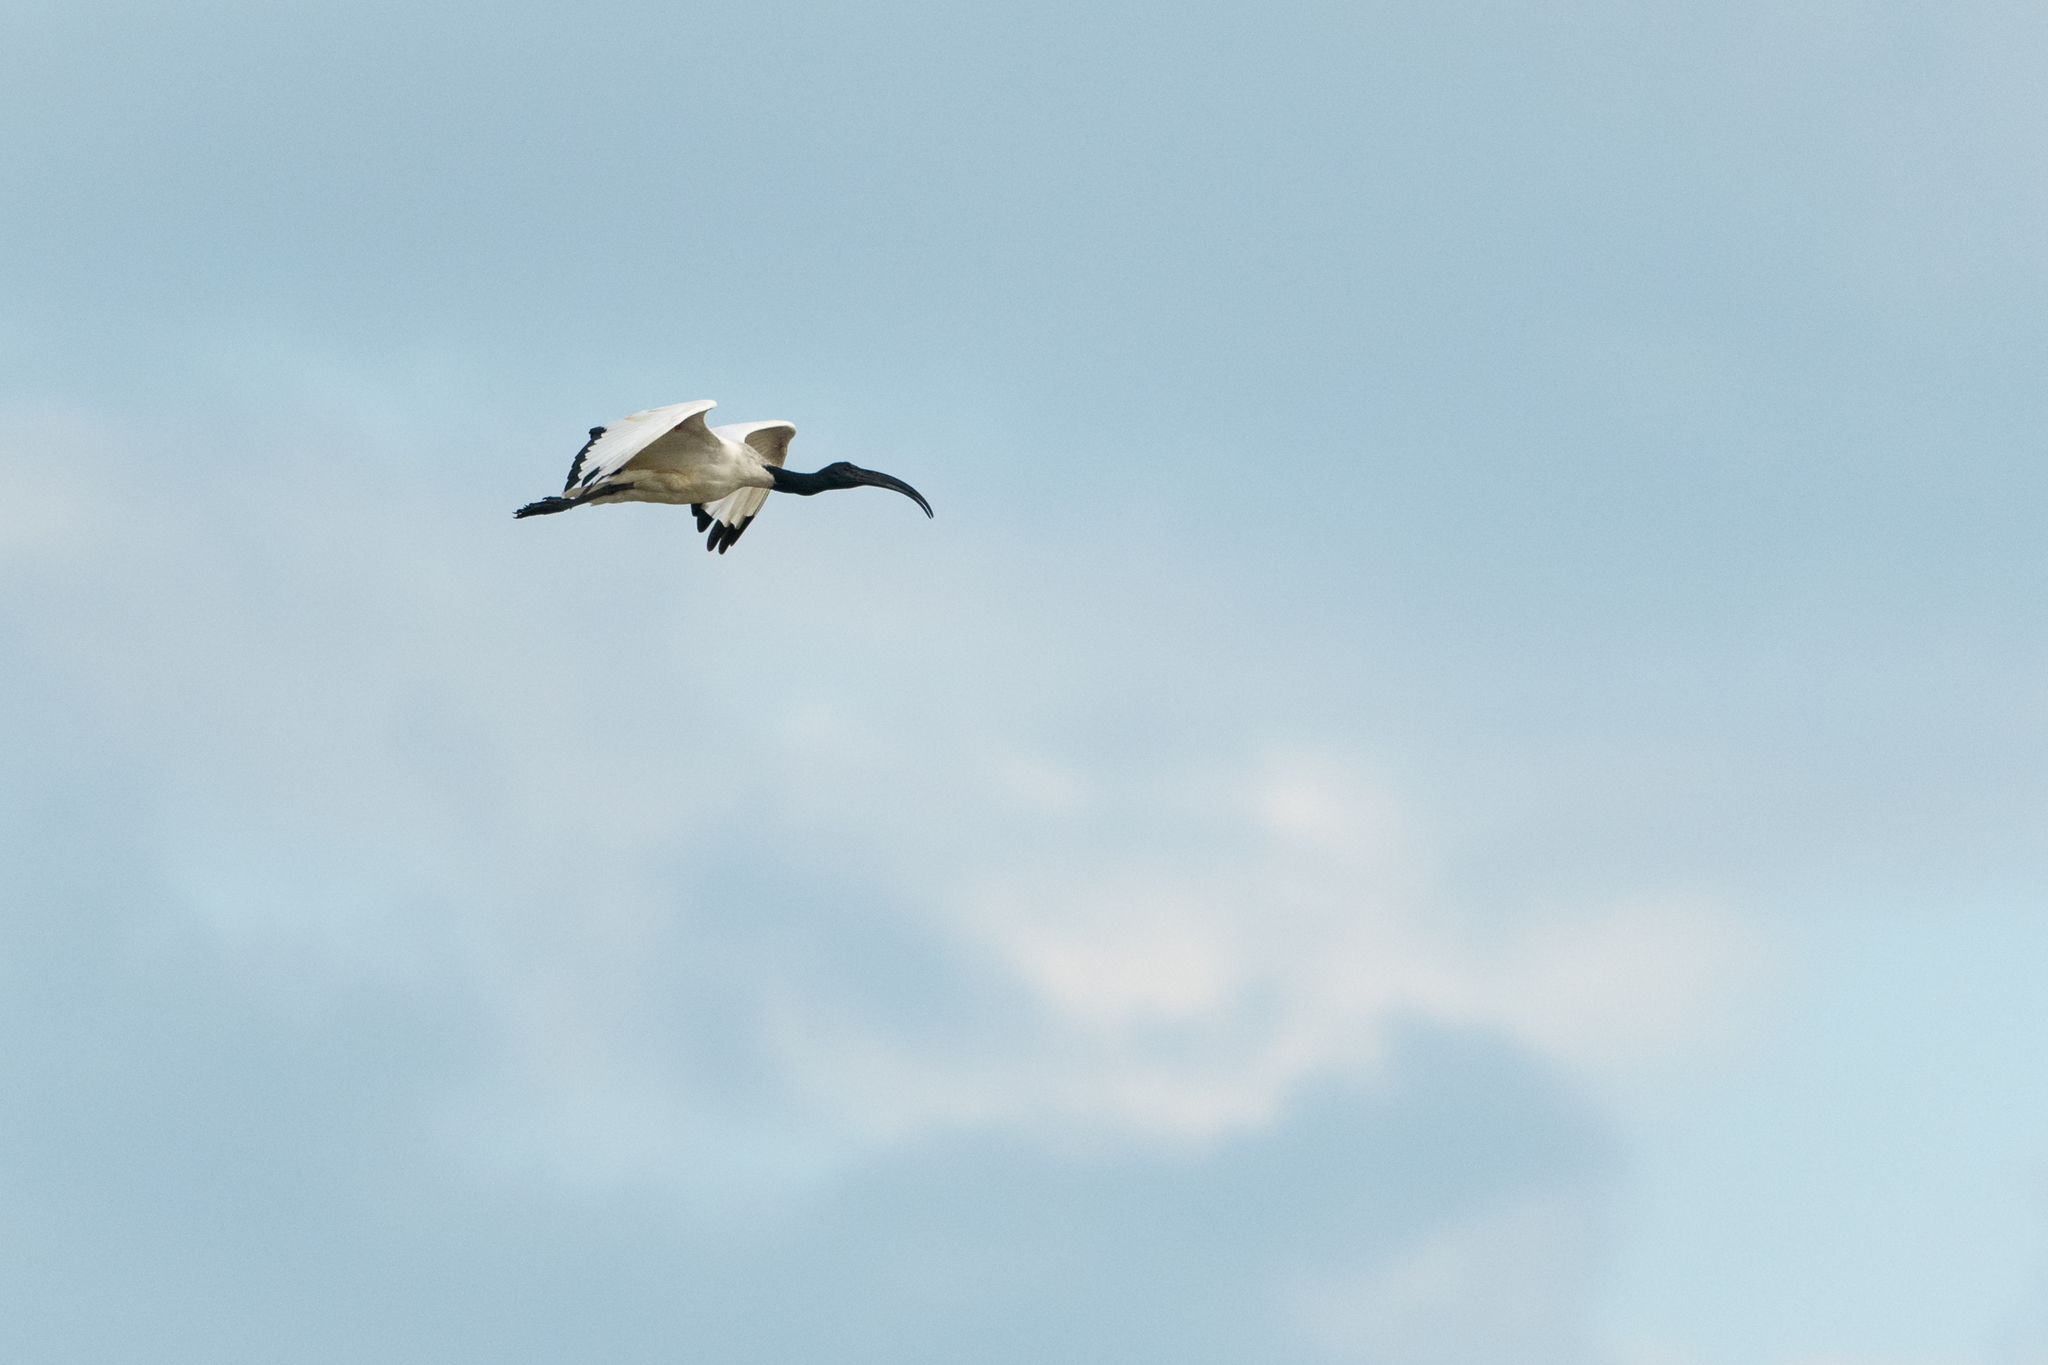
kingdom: Animalia
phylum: Chordata
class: Aves
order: Pelecaniformes
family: Threskiornithidae
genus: Threskiornis
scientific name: Threskiornis aethiopicus
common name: Sacred ibis
